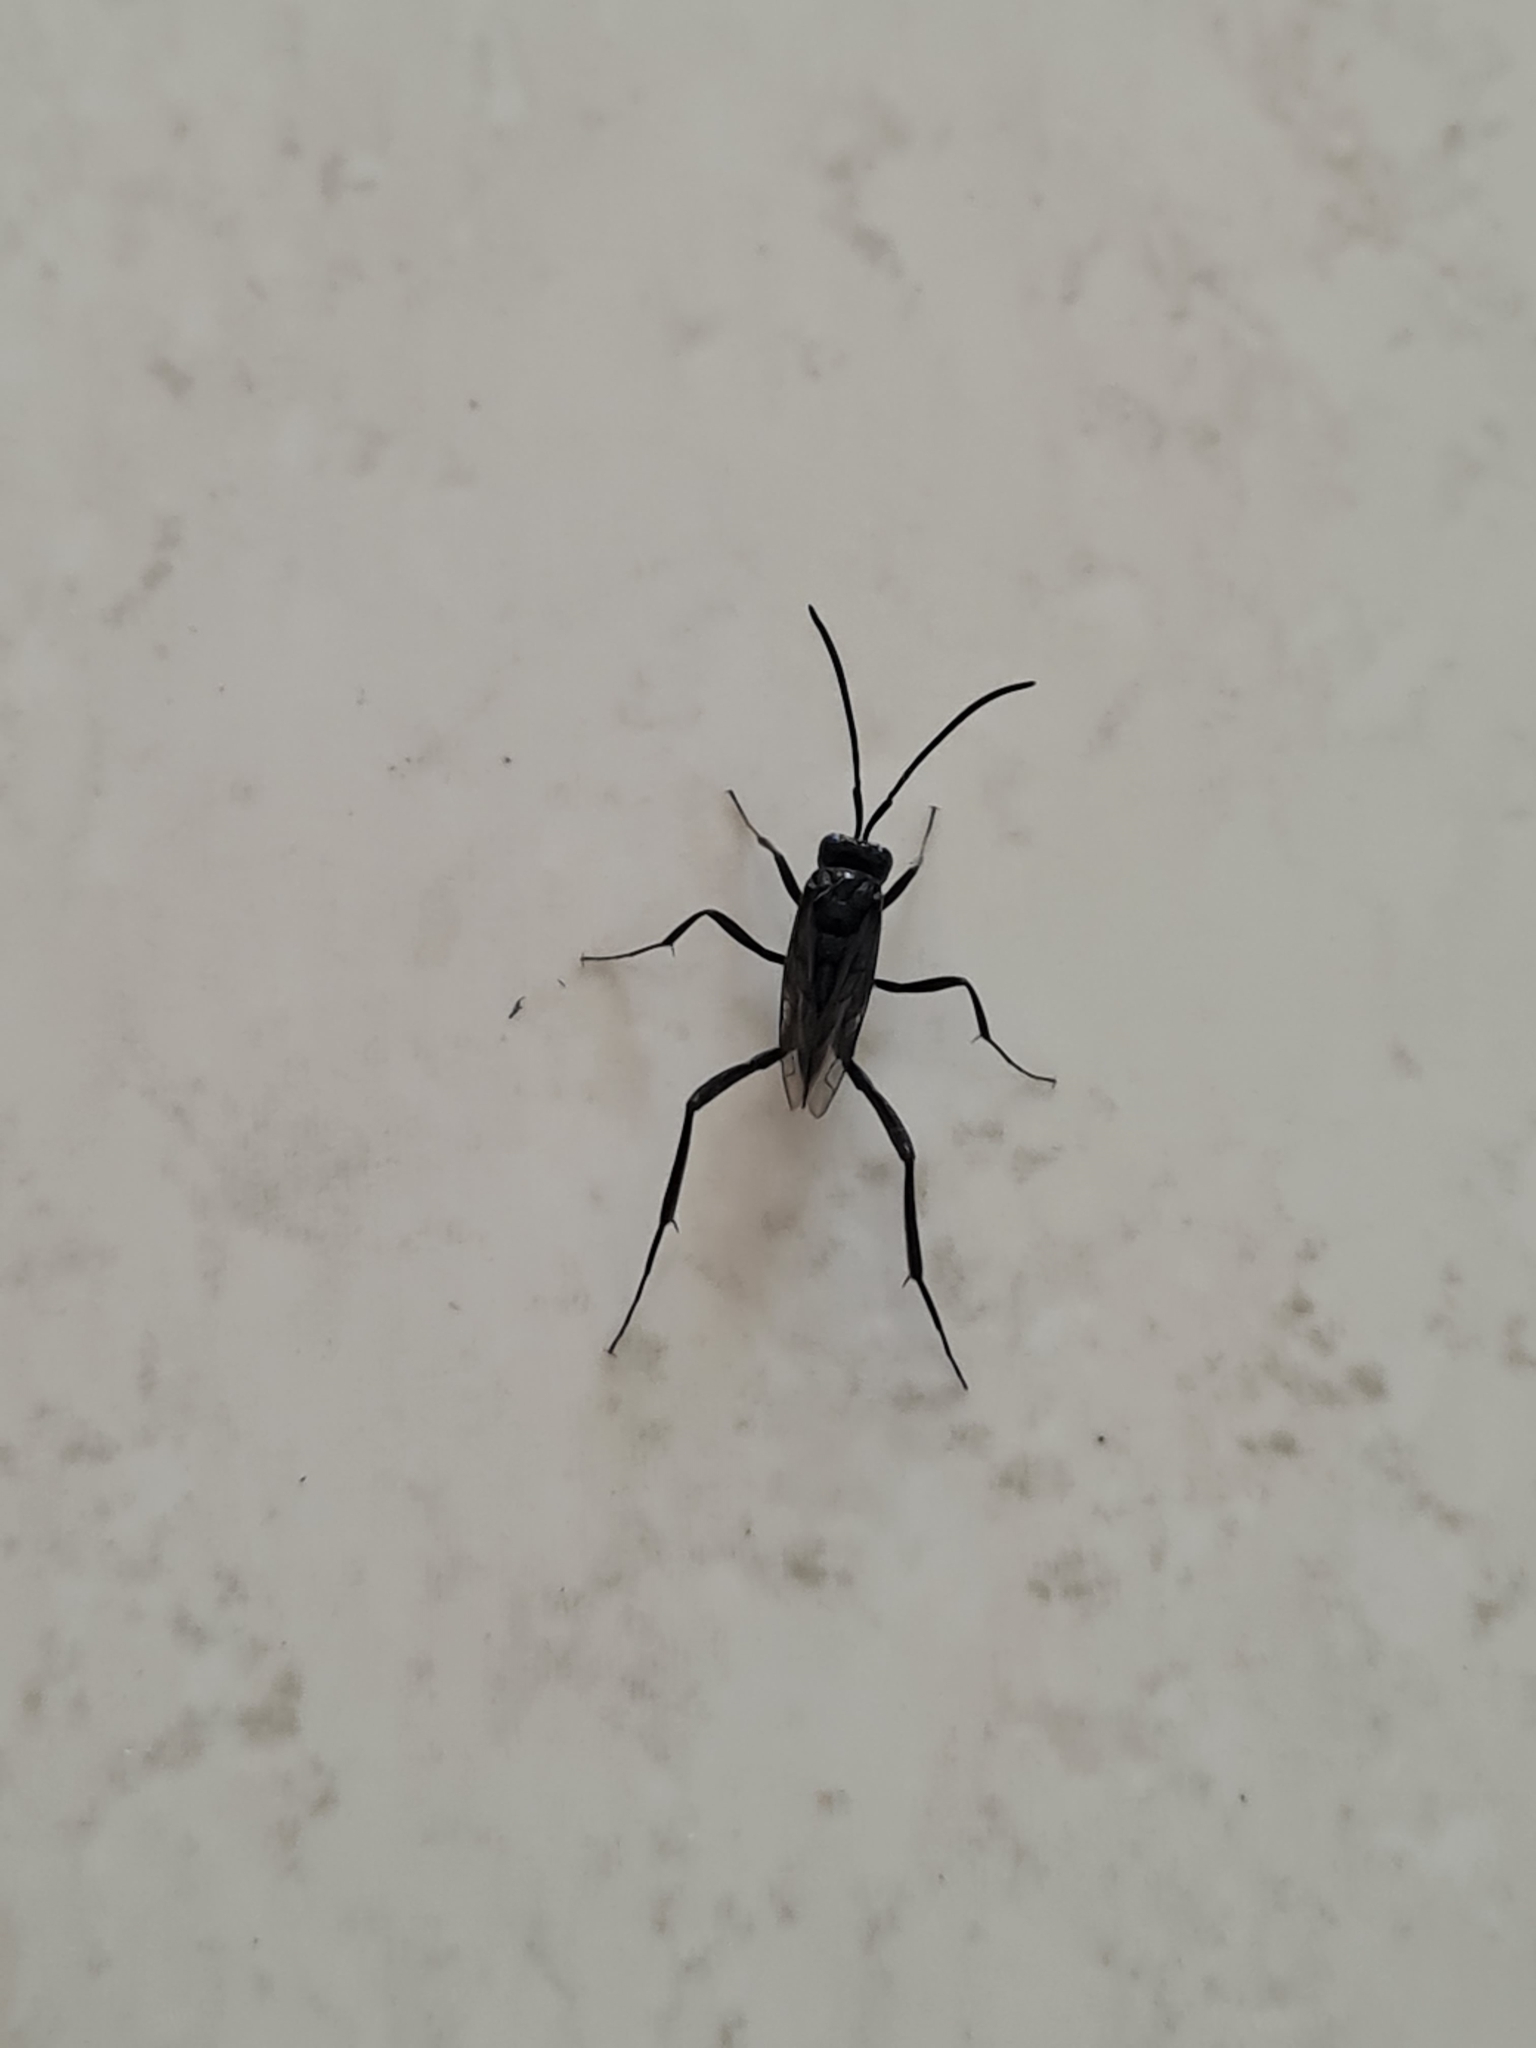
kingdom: Animalia
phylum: Arthropoda
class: Insecta
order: Hymenoptera
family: Evaniidae
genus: Evania
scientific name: Evania appendigaster
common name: Ensign wasp
